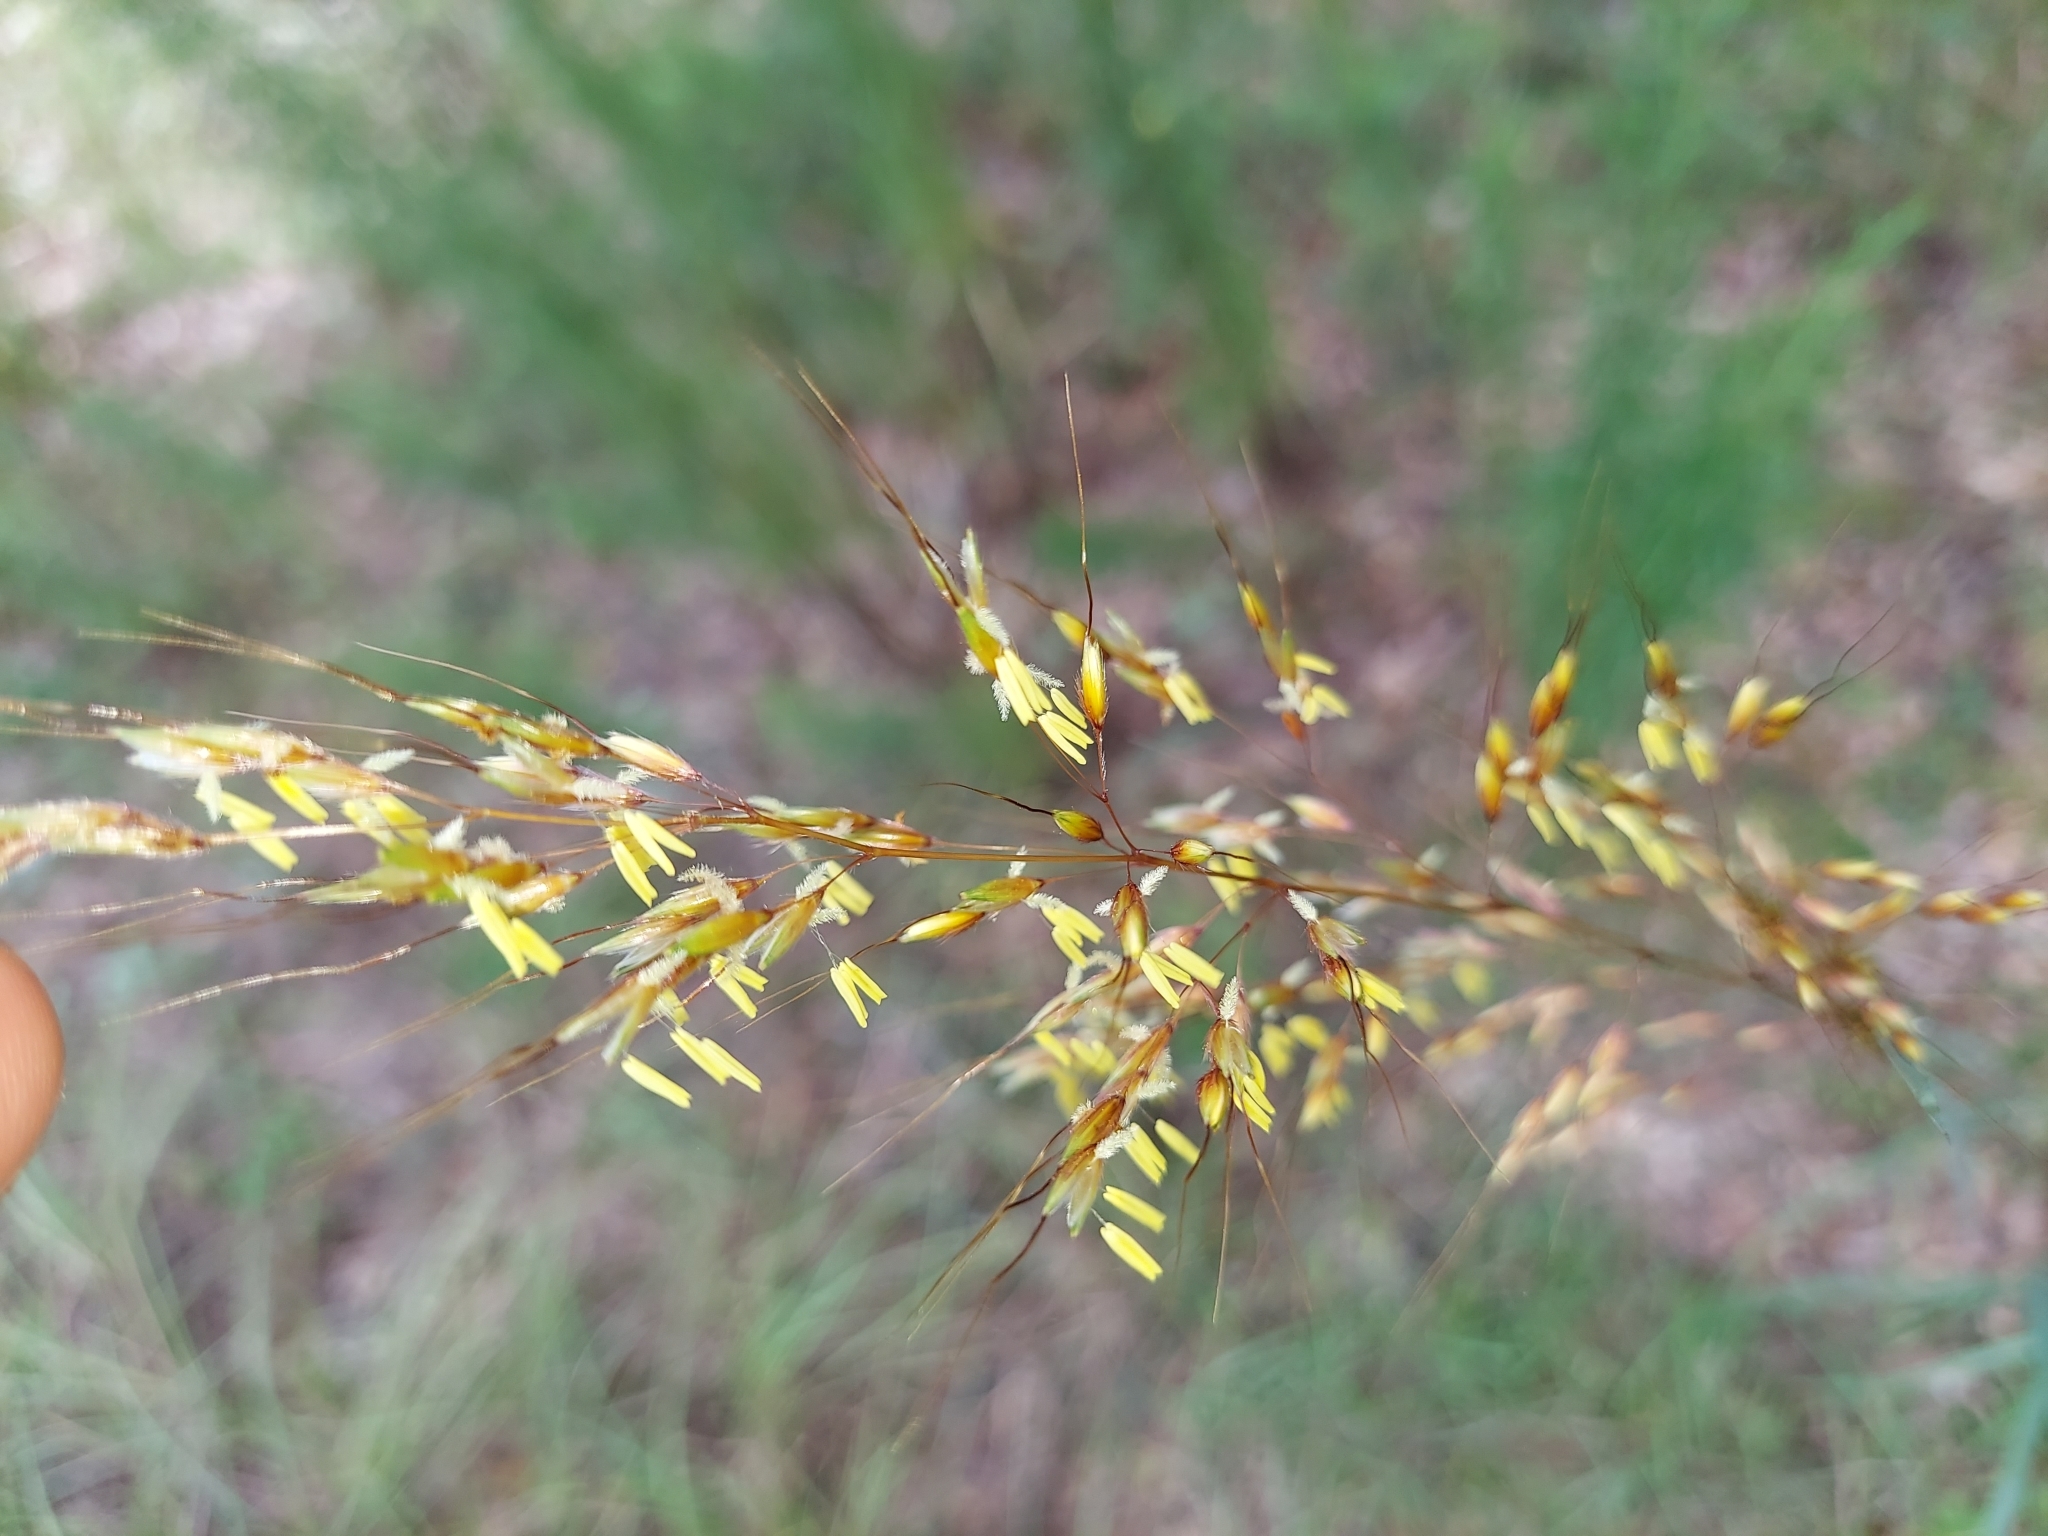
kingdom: Plantae
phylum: Tracheophyta
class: Liliopsida
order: Poales
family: Poaceae
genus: Sorghastrum
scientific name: Sorghastrum nutans
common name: Indian grass
